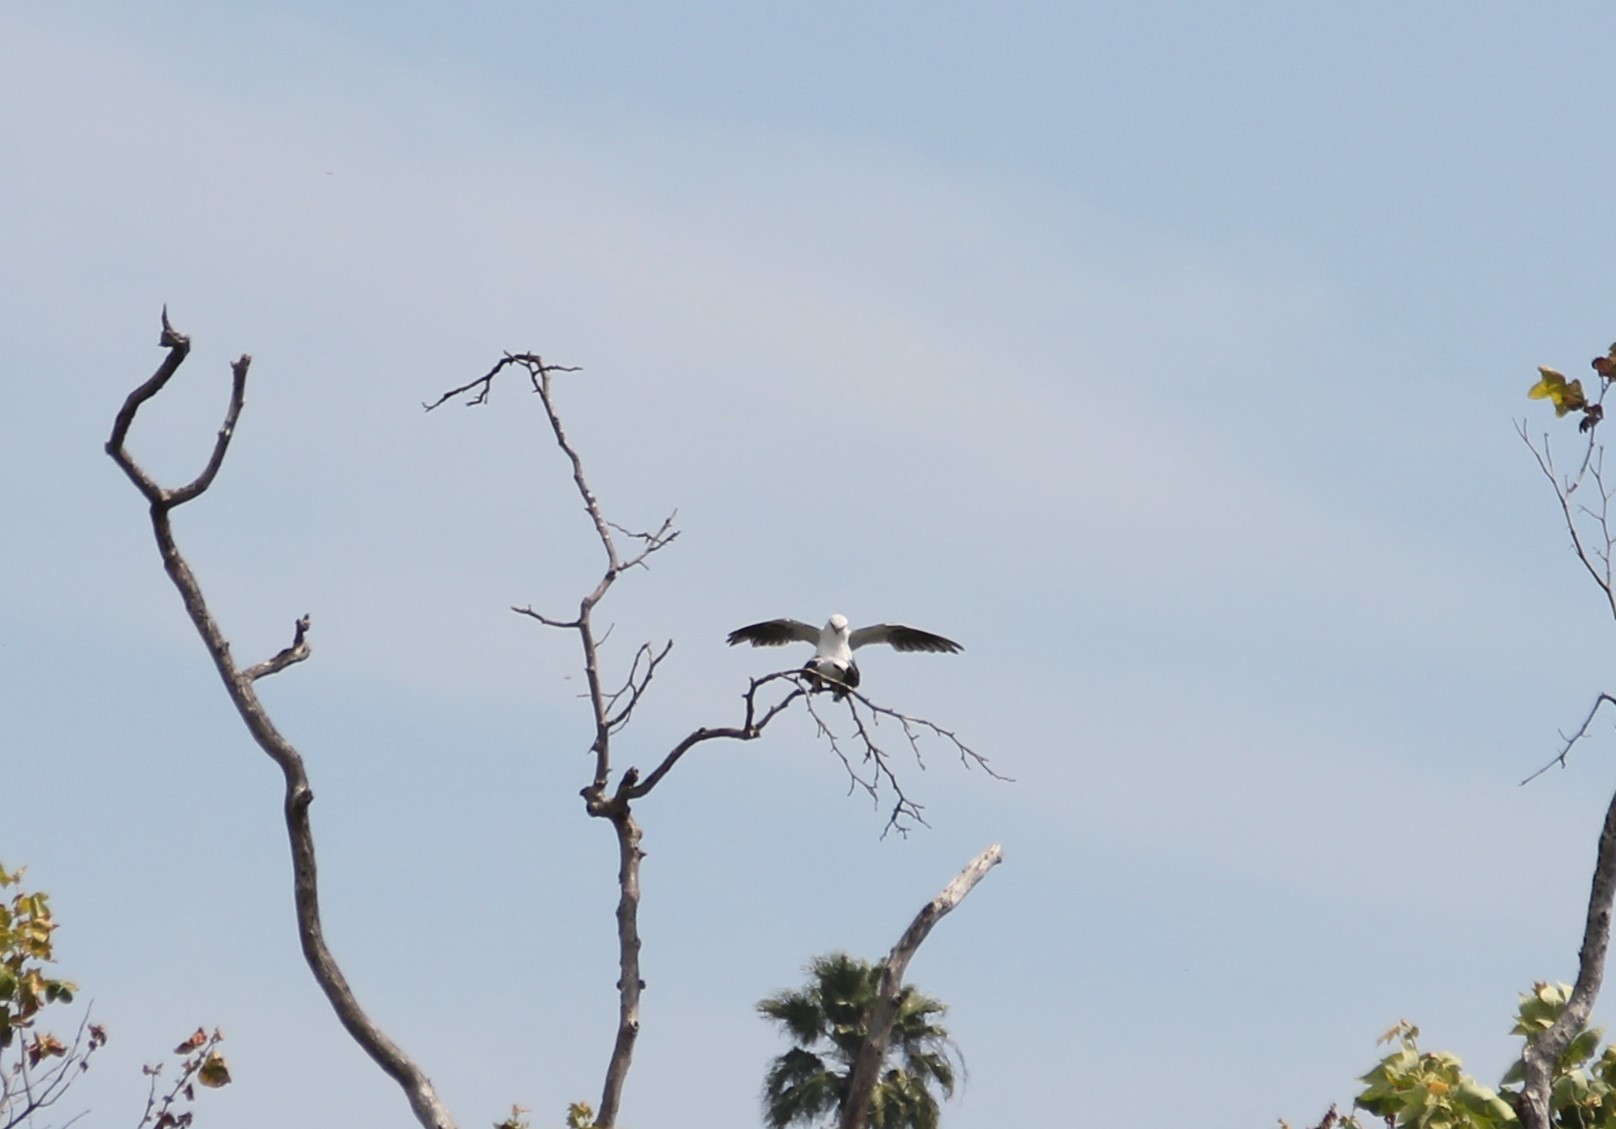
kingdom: Animalia
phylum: Chordata
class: Aves
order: Accipitriformes
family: Accipitridae
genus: Elanus
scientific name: Elanus leucurus
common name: White-tailed kite
